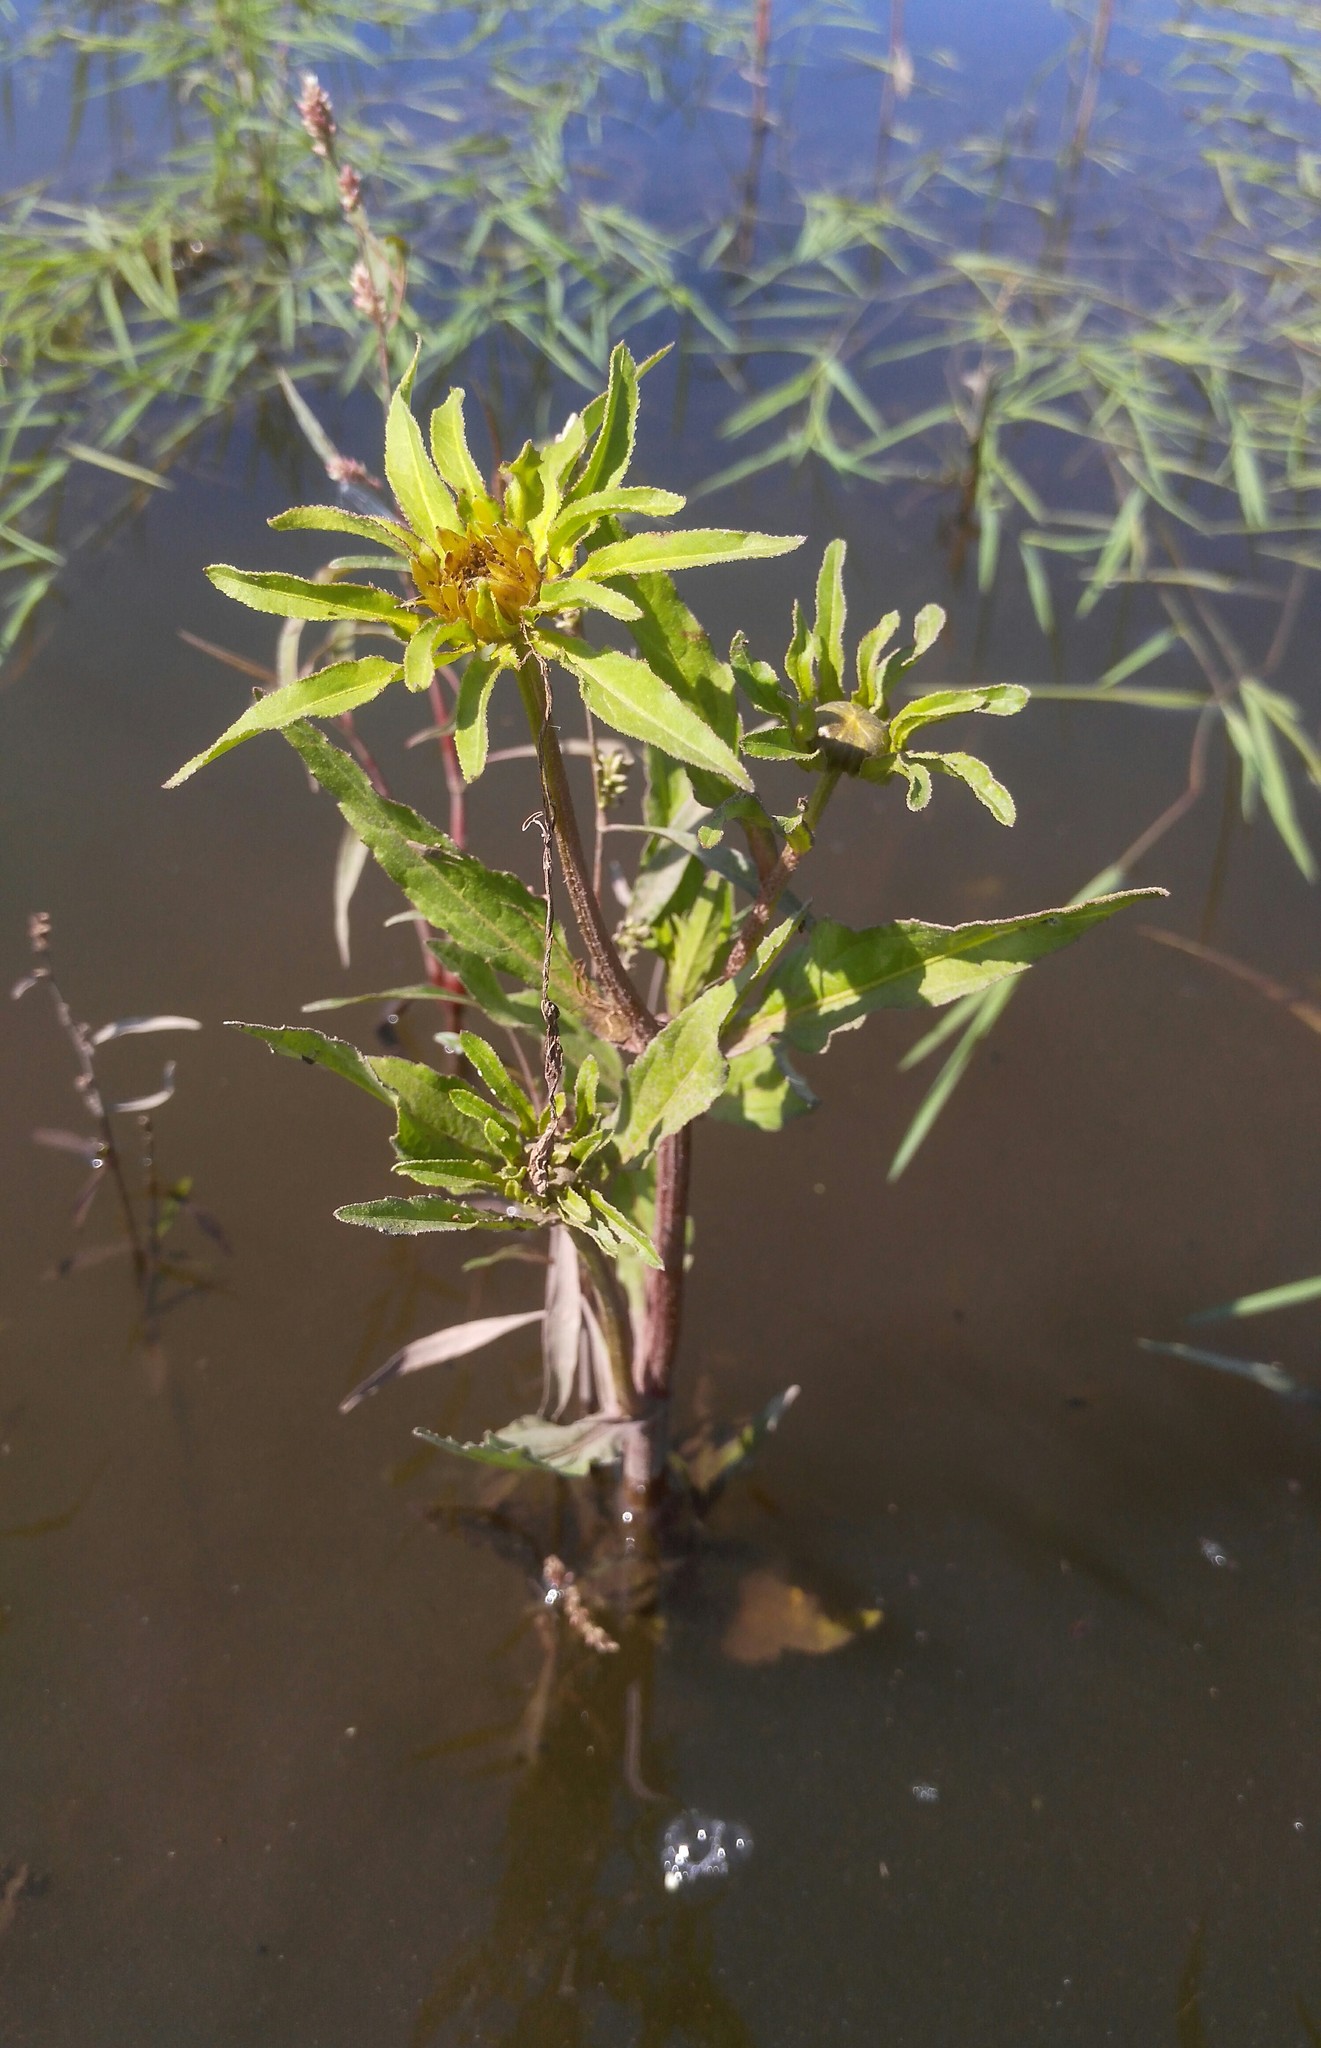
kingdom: Plantae
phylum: Tracheophyta
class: Magnoliopsida
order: Asterales
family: Asteraceae
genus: Bidens
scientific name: Bidens radiata
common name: Radiating bur-marigold
